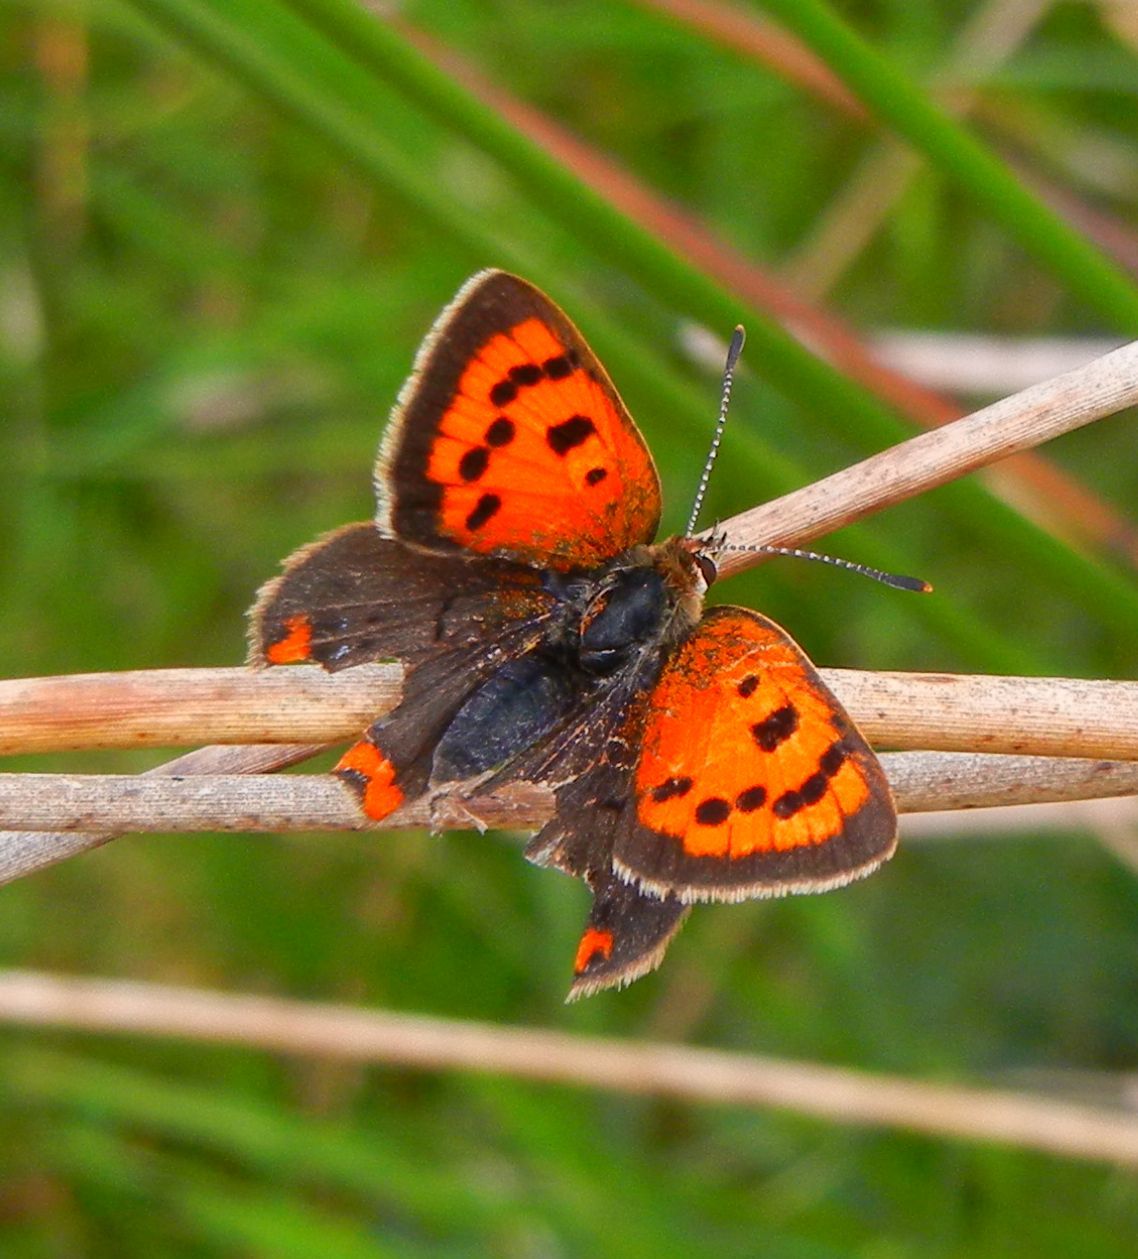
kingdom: Animalia
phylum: Arthropoda
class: Insecta
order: Lepidoptera
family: Lycaenidae
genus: Lycaena
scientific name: Lycaena phlaeas
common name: Small copper
